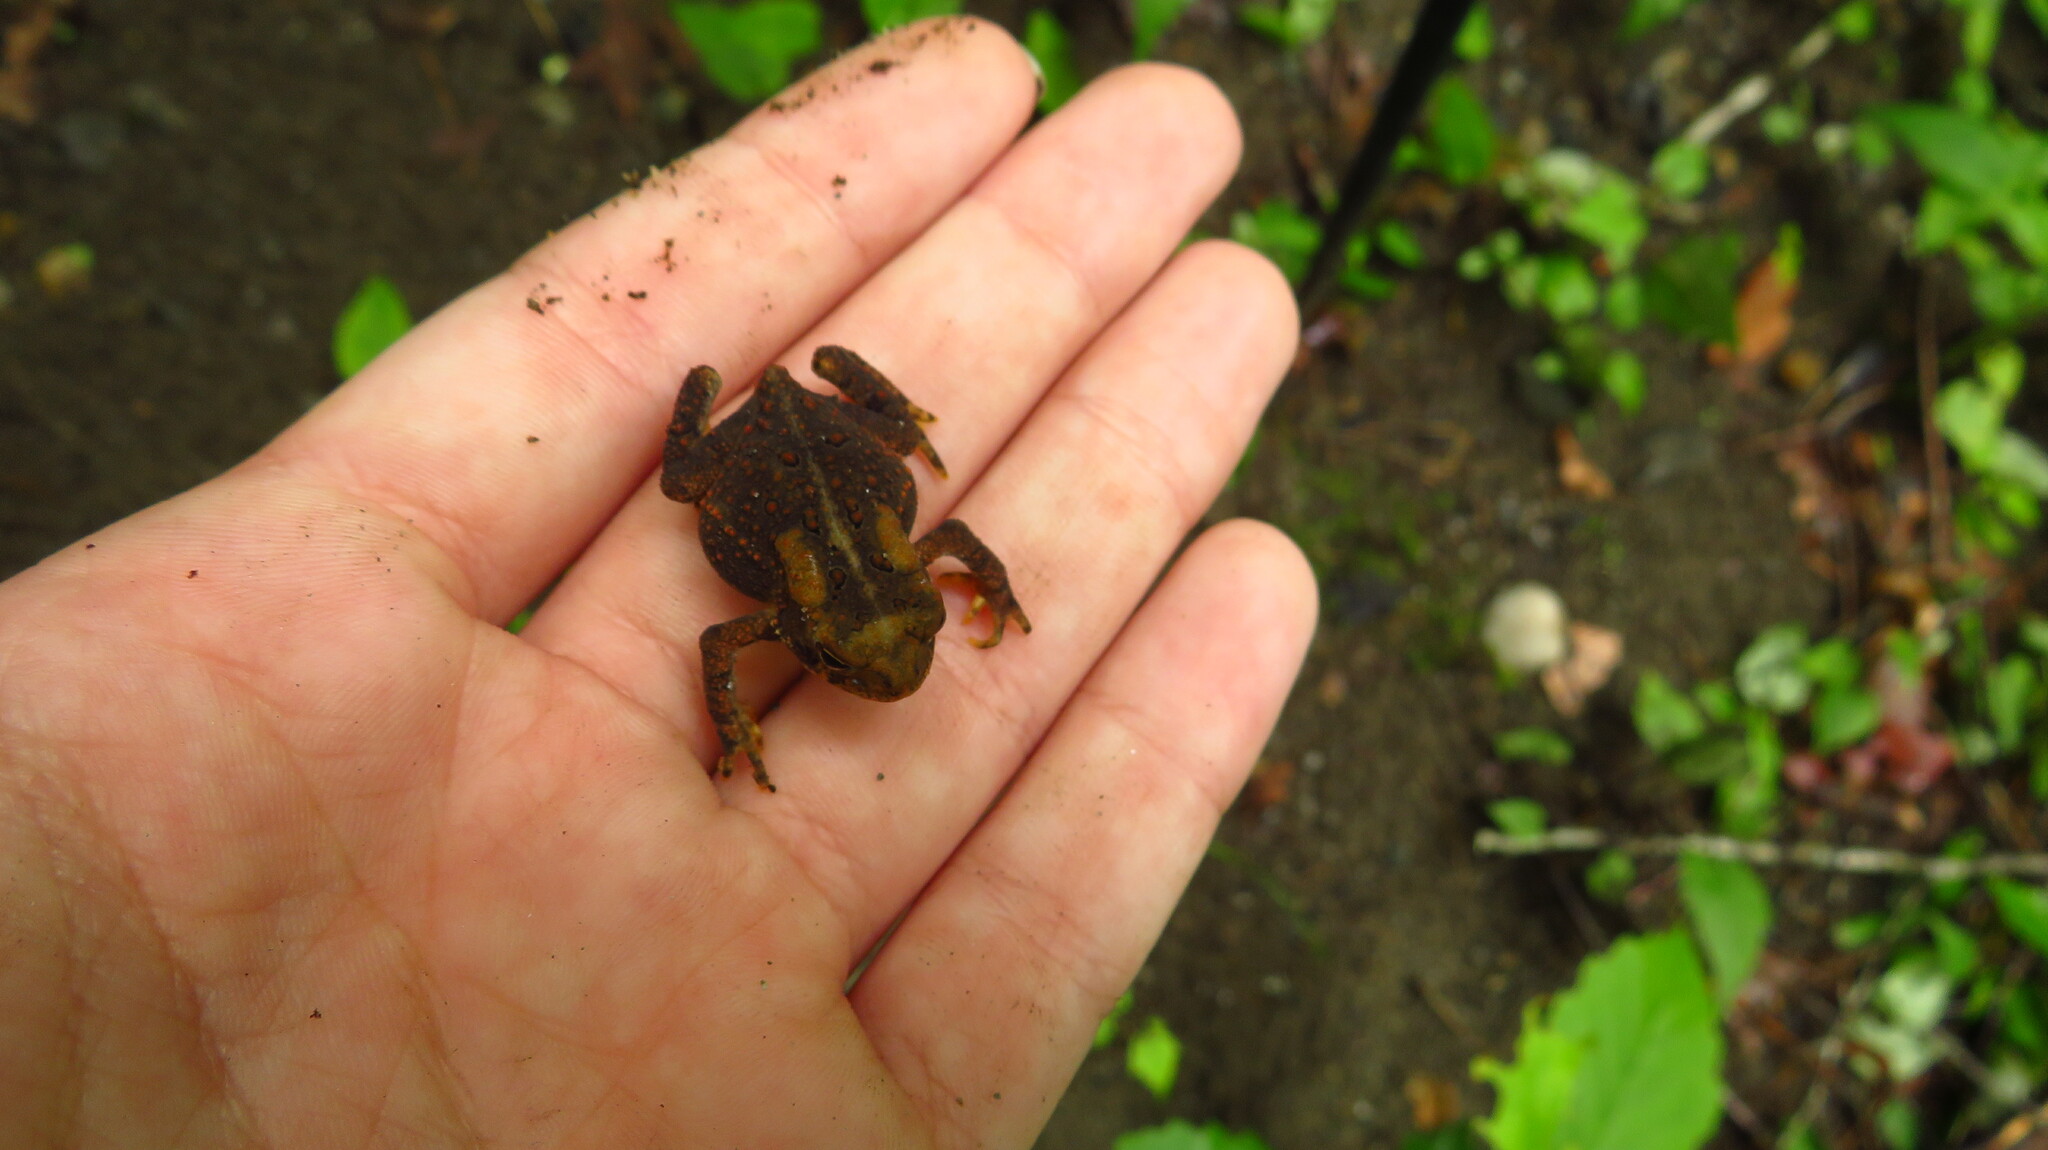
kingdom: Animalia
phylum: Chordata
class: Amphibia
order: Anura
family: Bufonidae
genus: Anaxyrus
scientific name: Anaxyrus americanus
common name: American toad
